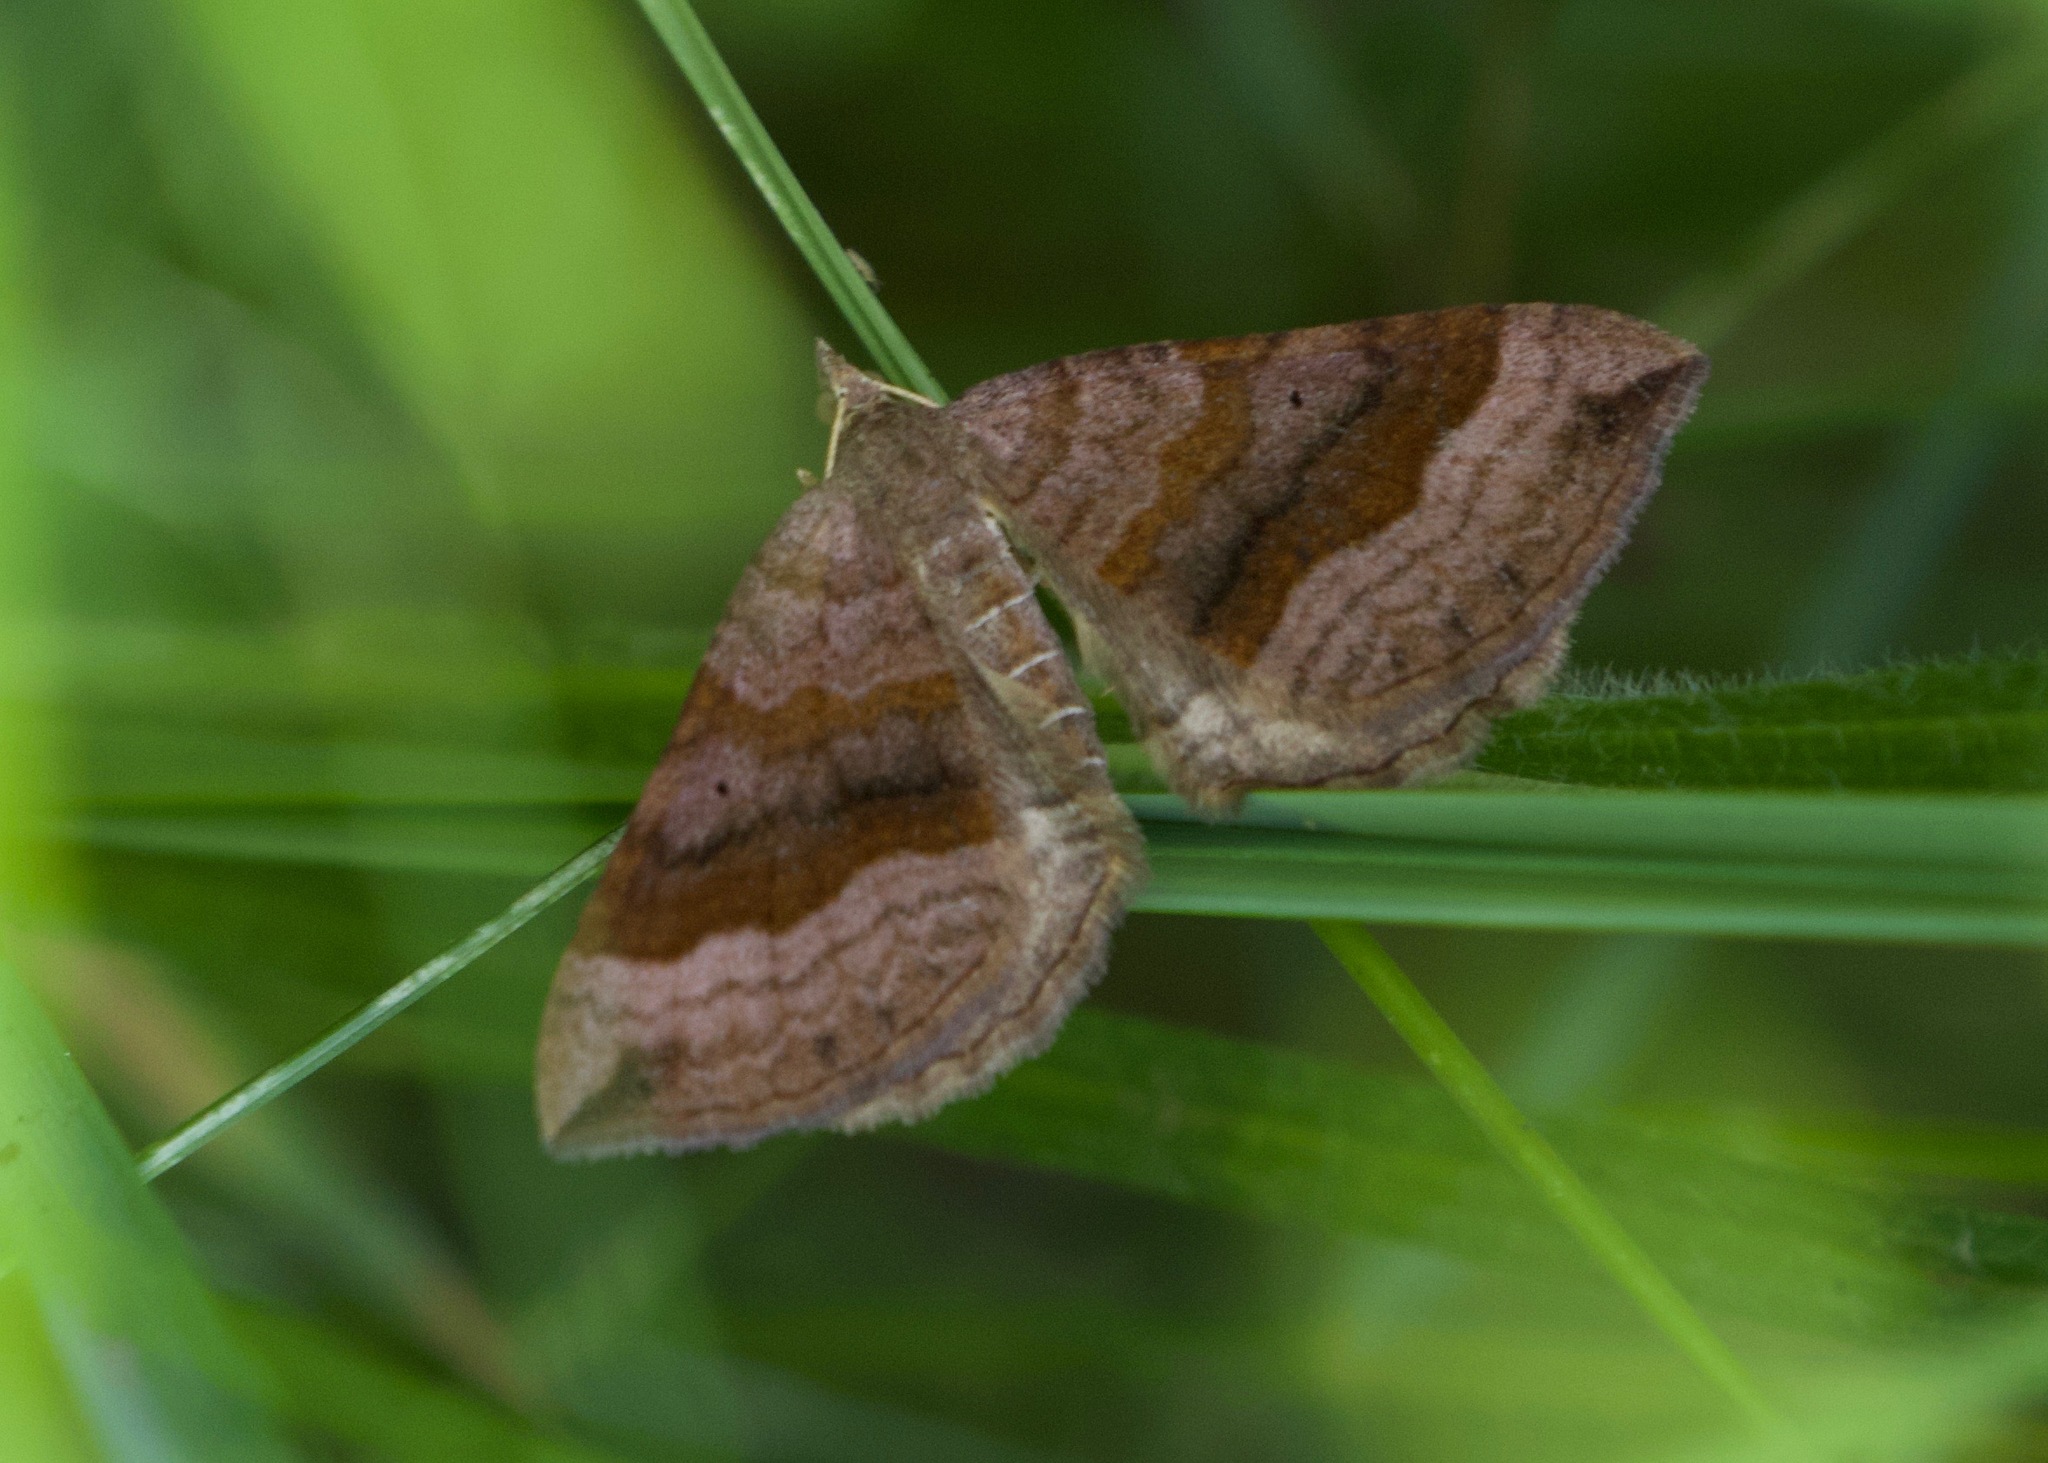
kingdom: Animalia
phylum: Arthropoda
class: Insecta
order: Lepidoptera
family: Geometridae
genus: Scotopteryx
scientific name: Scotopteryx chenopodiata
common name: Shaded broad-bar
